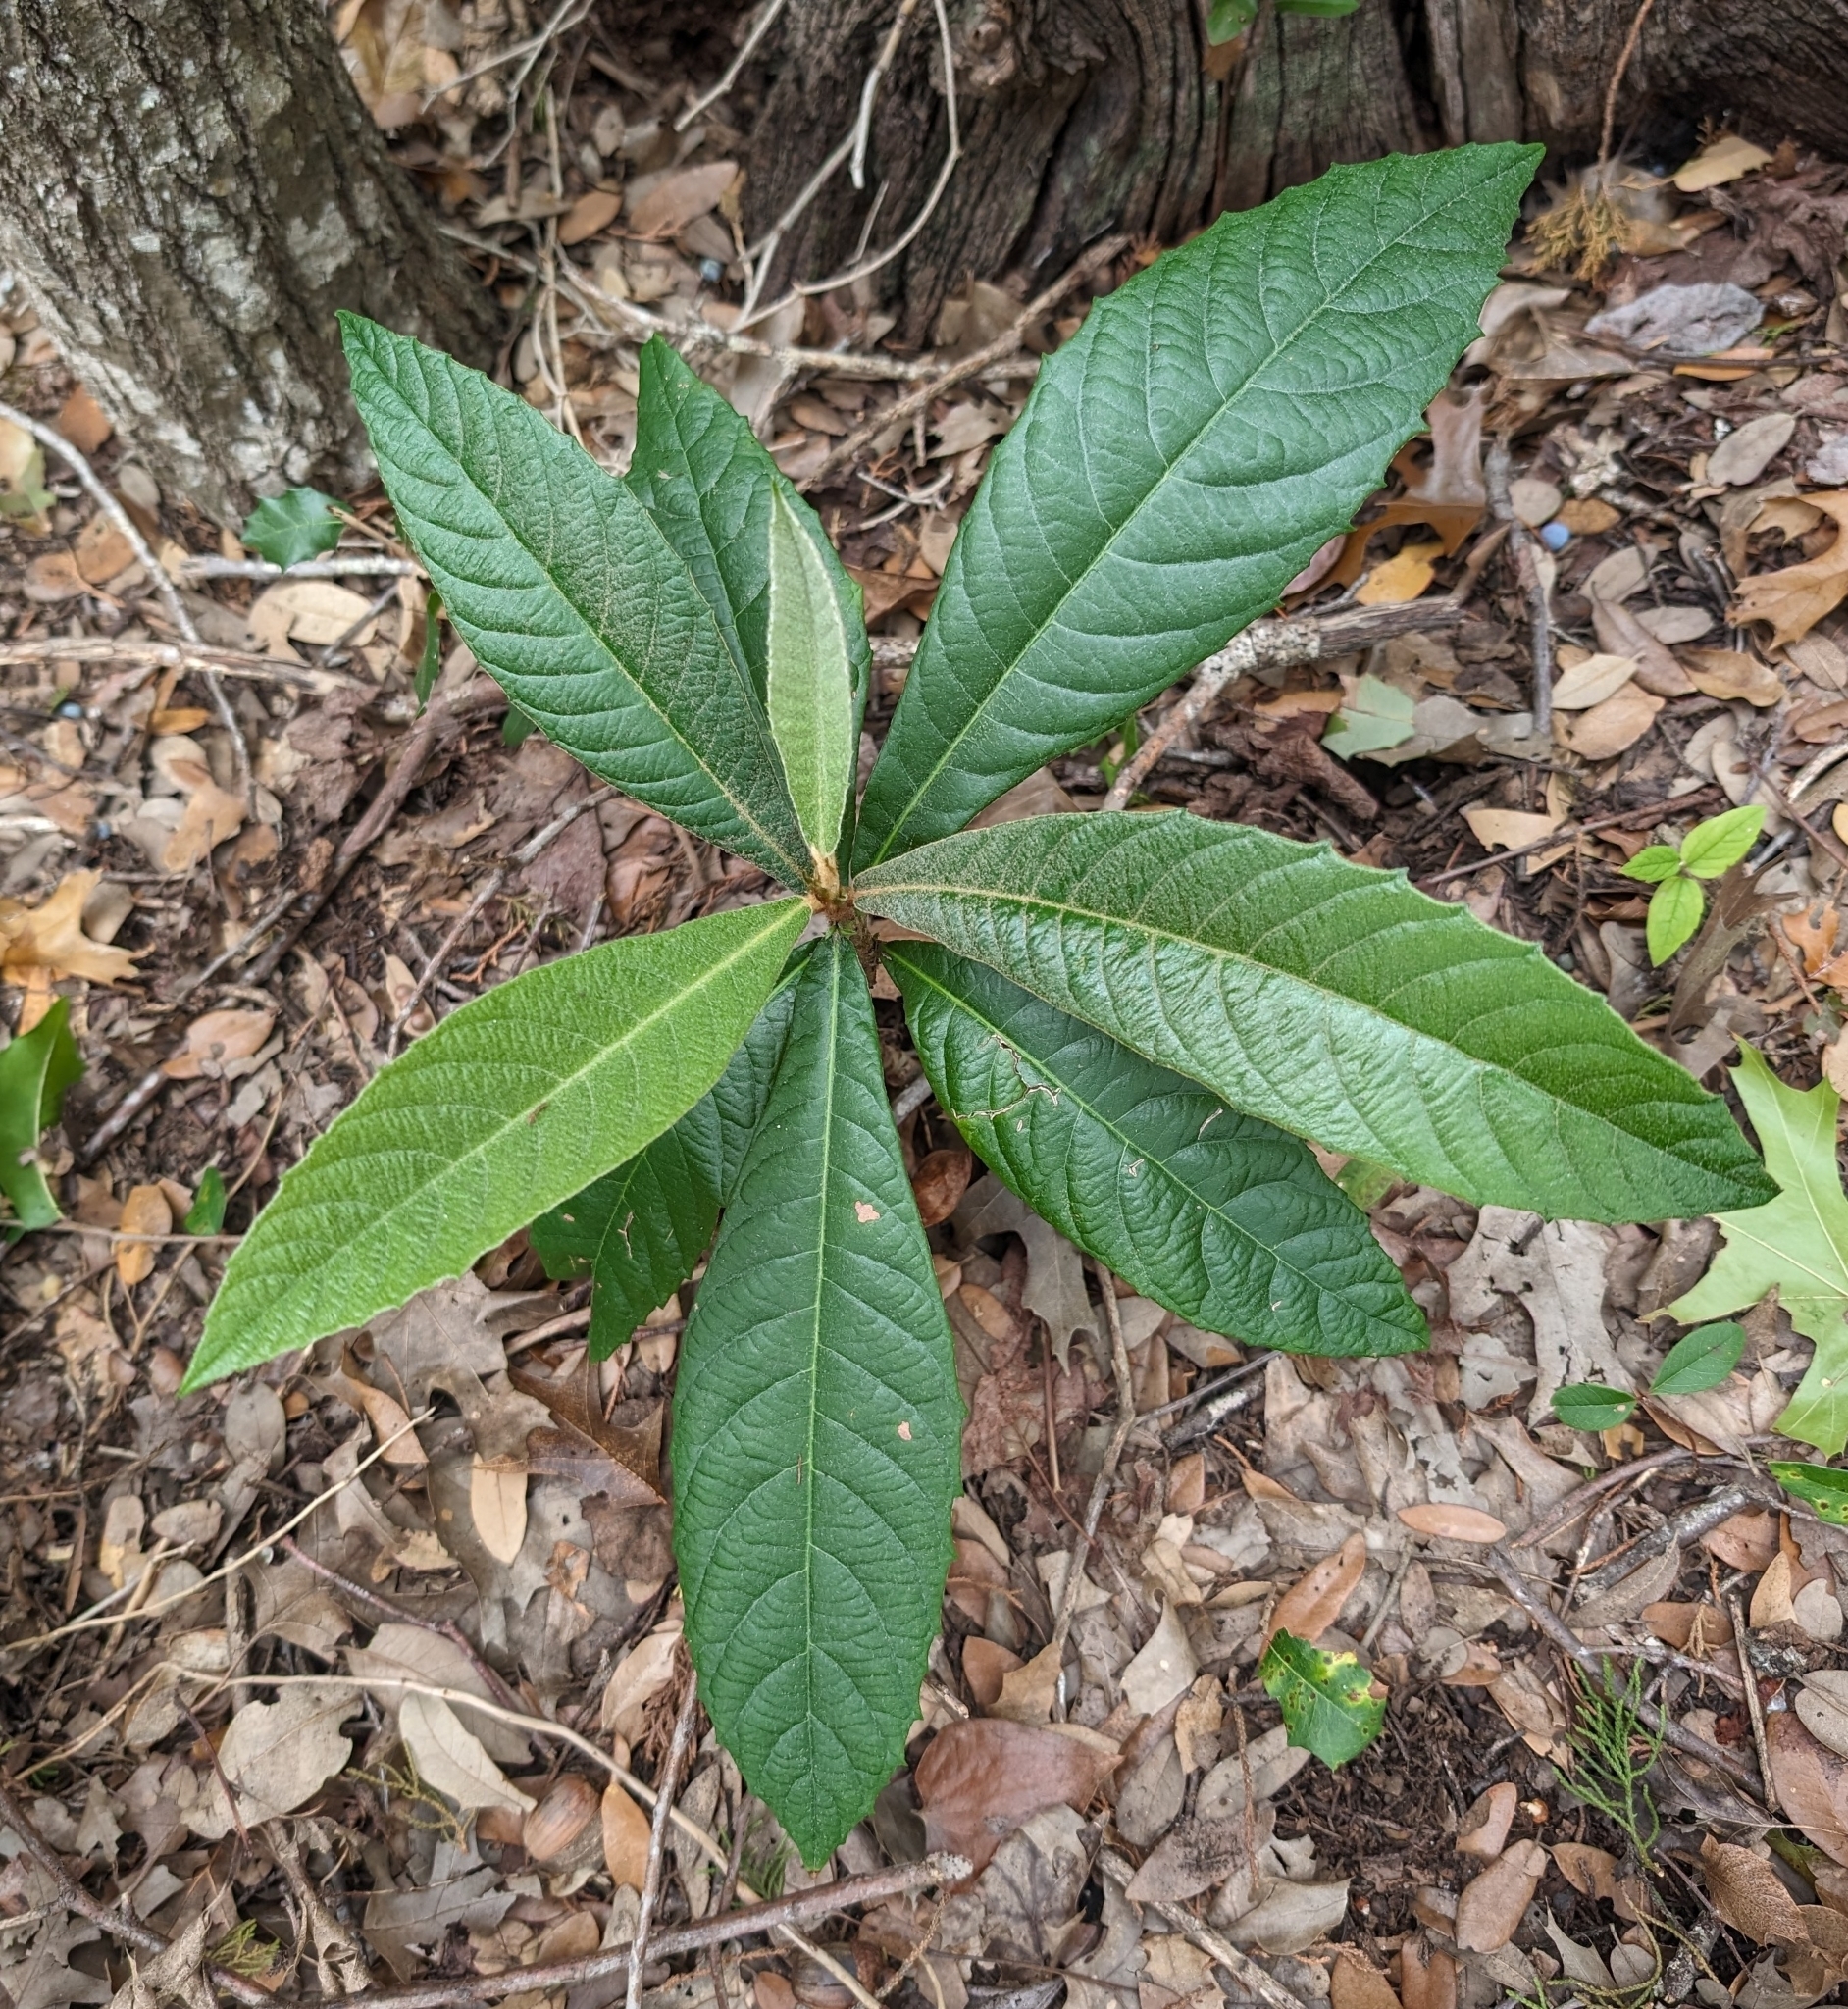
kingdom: Plantae
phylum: Tracheophyta
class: Magnoliopsida
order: Rosales
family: Rosaceae
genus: Rhaphiolepis
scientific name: Rhaphiolepis bibas
